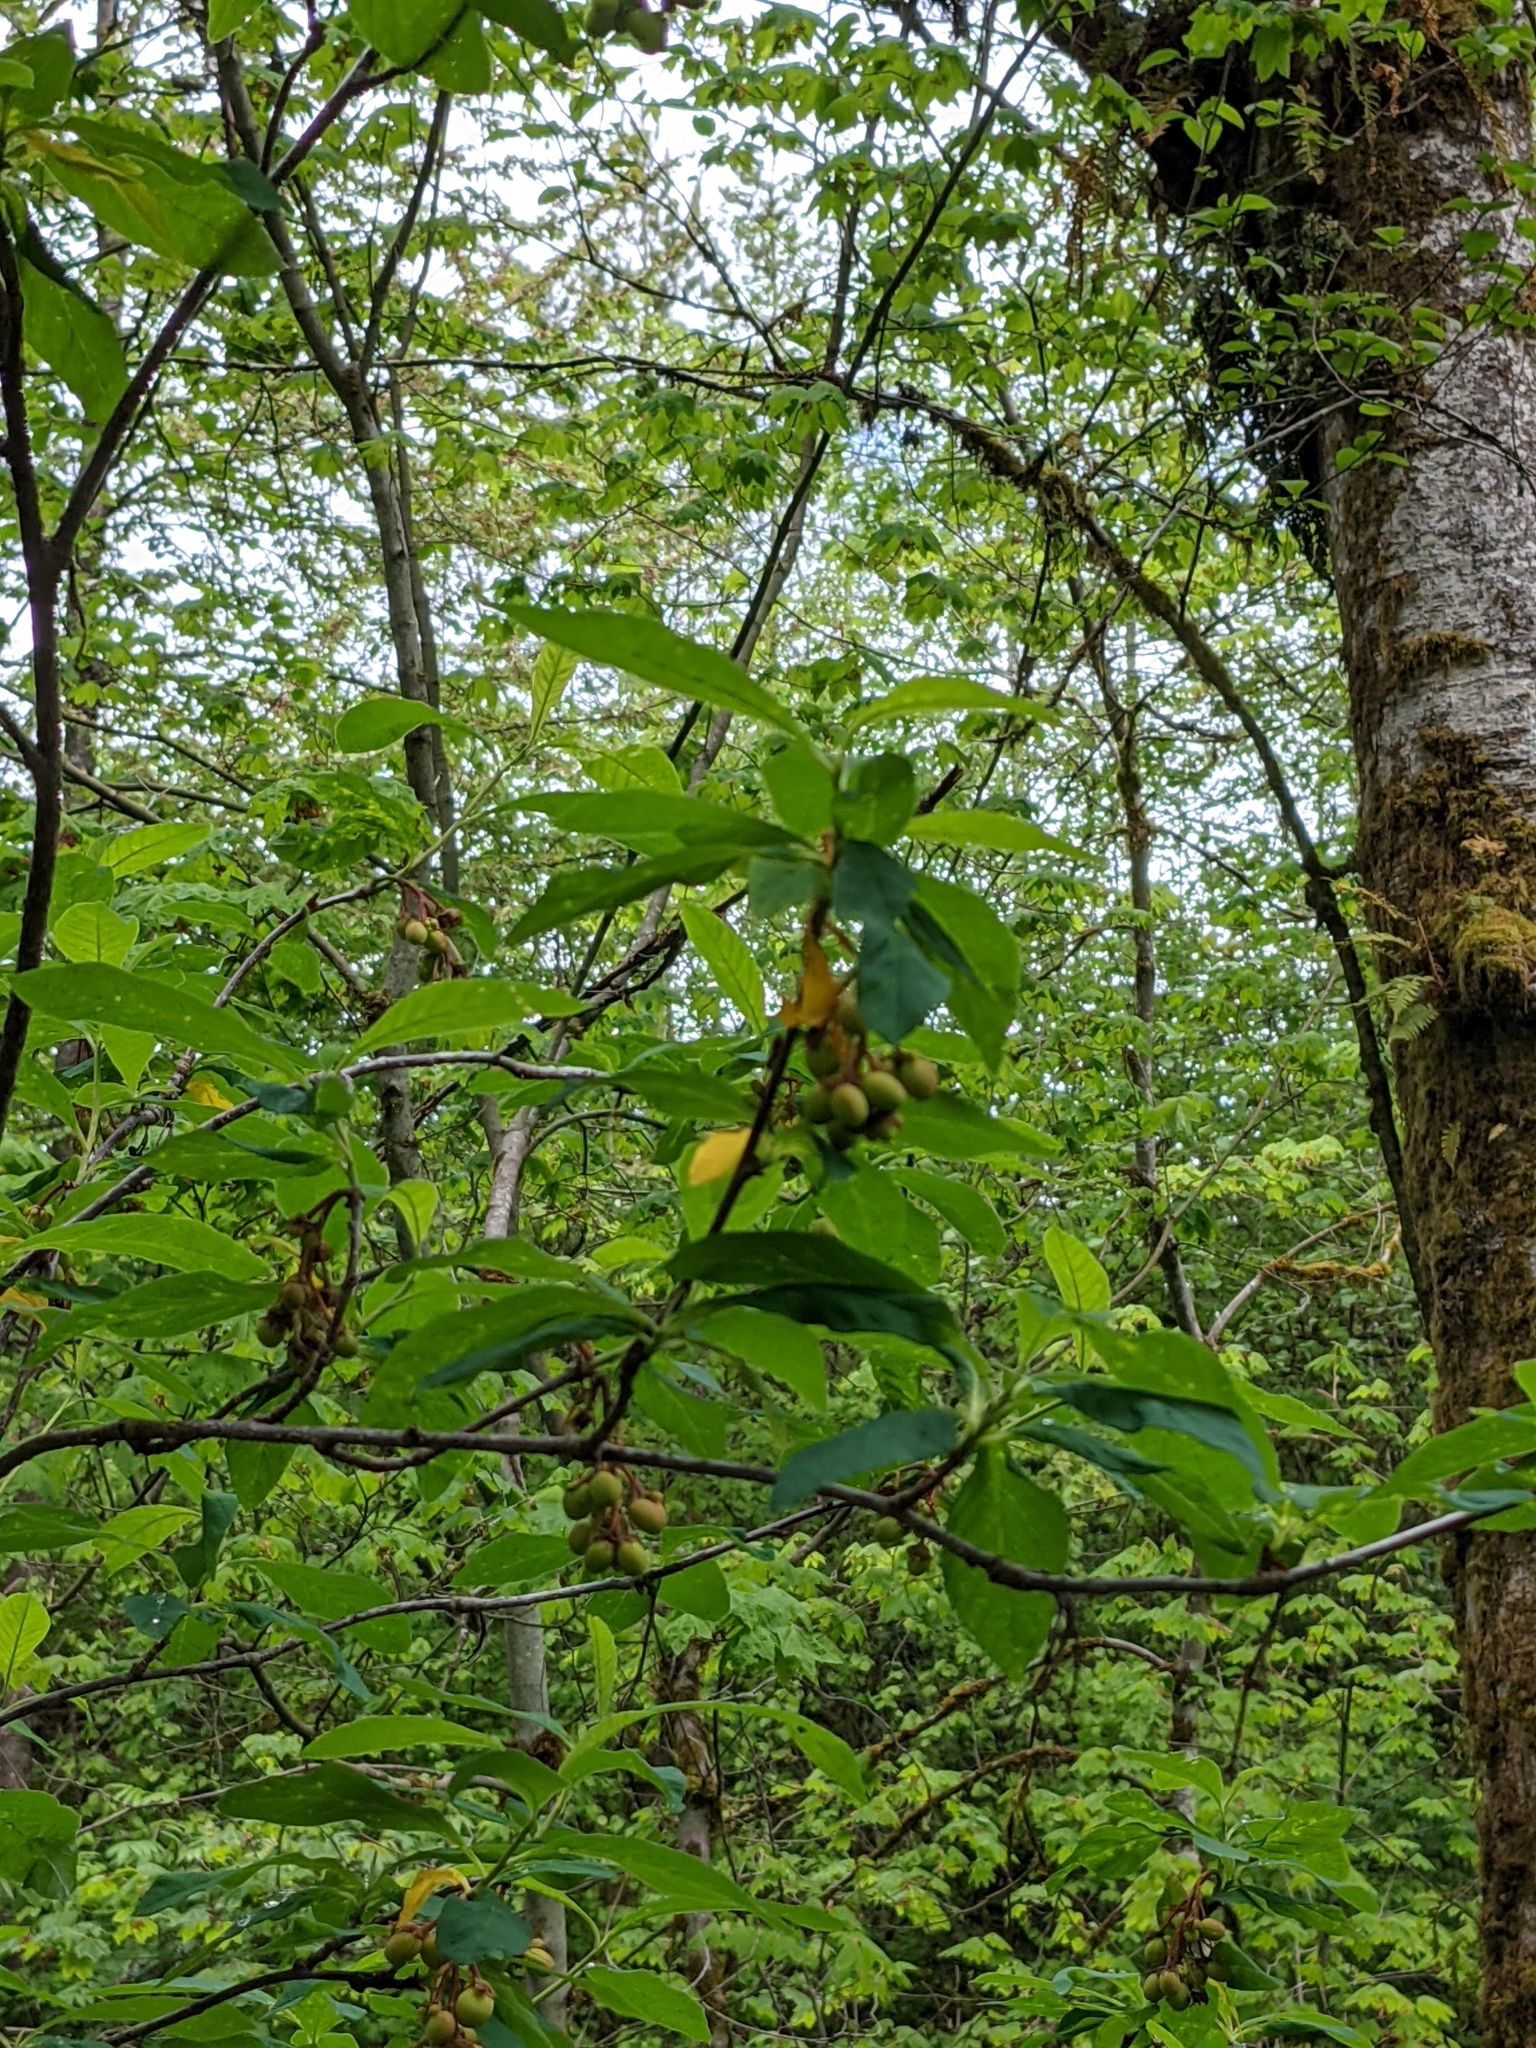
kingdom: Plantae
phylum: Tracheophyta
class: Magnoliopsida
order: Rosales
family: Rosaceae
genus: Oemleria
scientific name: Oemleria cerasiformis
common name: Osoberry
